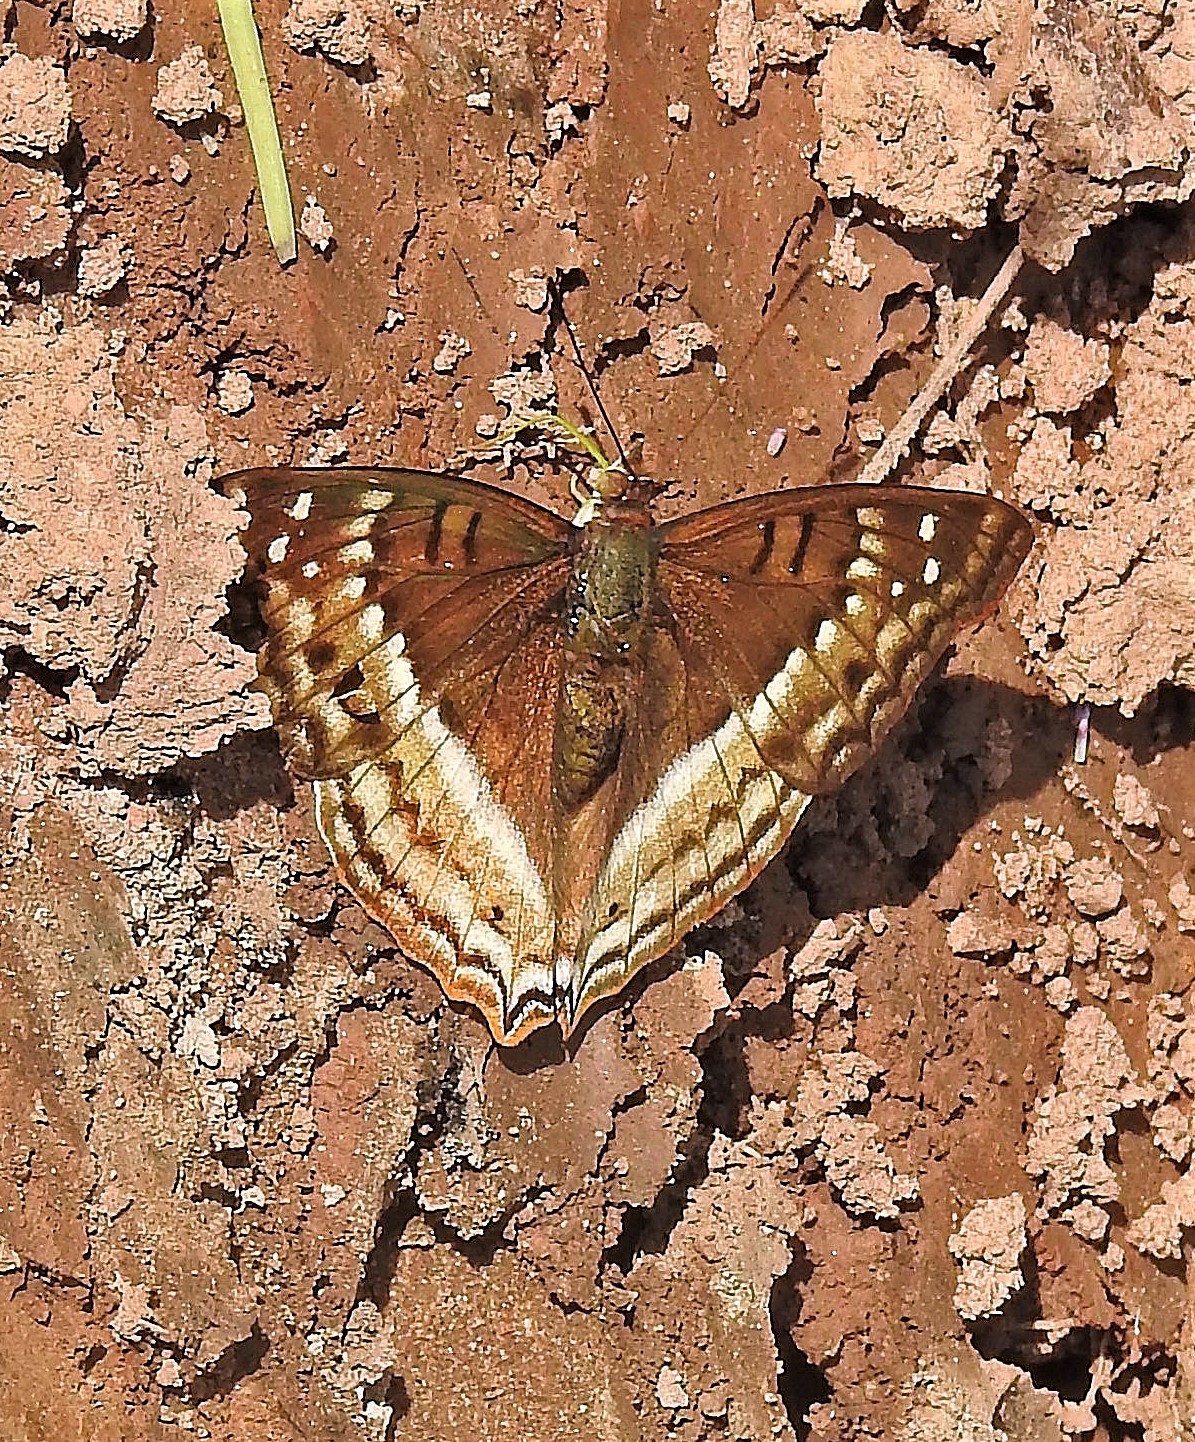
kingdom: Animalia
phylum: Arthropoda
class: Insecta
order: Lepidoptera
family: Nymphalidae
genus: Doxocopa
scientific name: Doxocopa cyane
